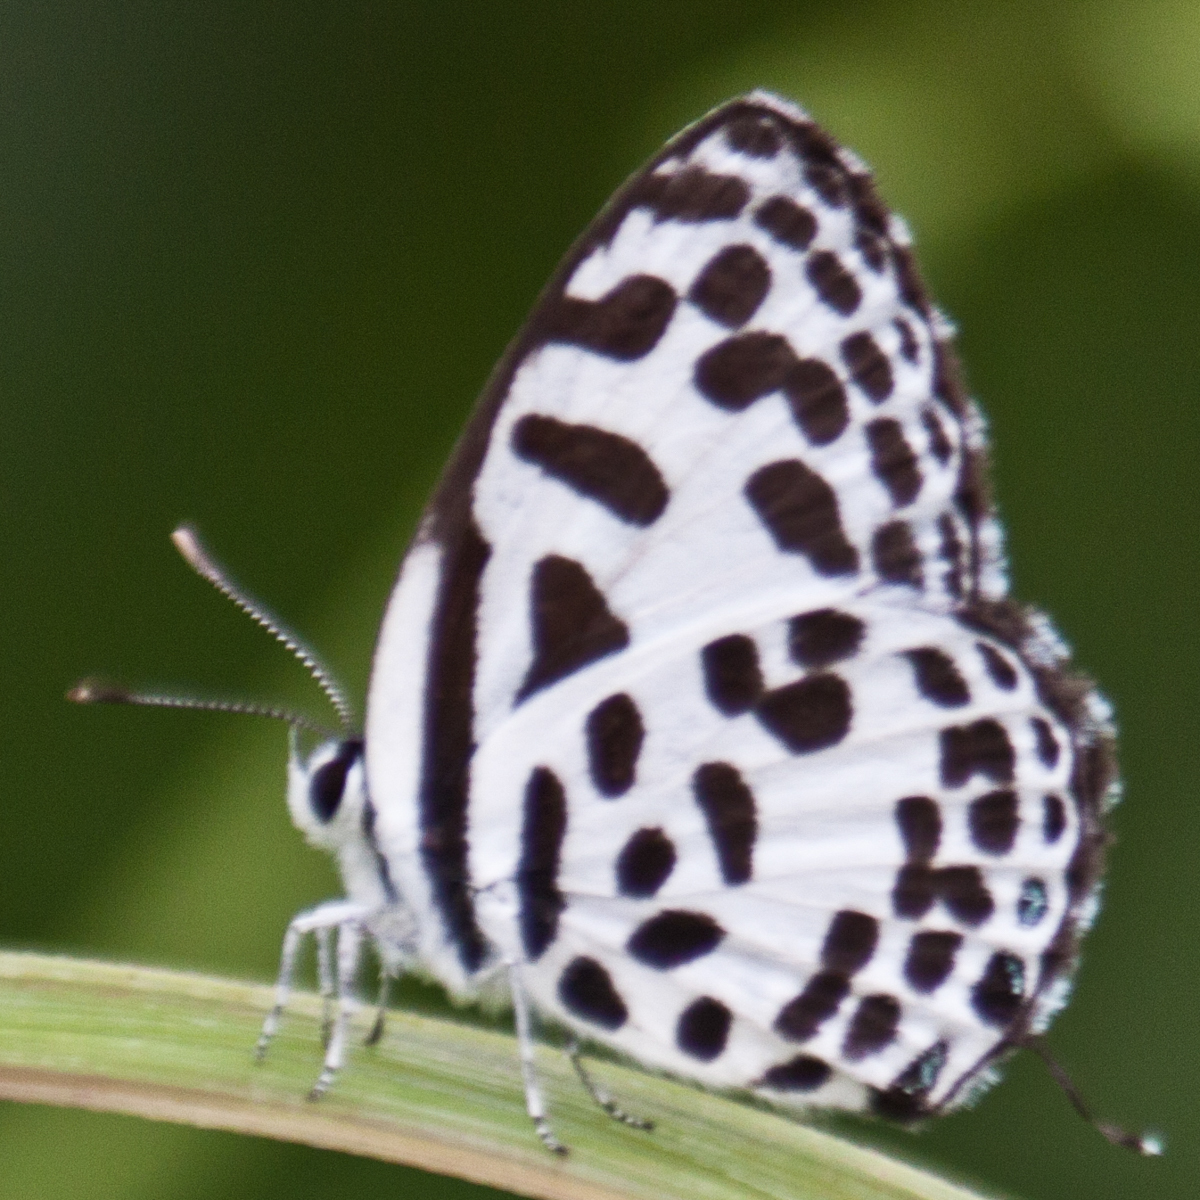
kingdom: Animalia
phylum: Arthropoda
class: Insecta
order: Lepidoptera
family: Lycaenidae
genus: Castalius
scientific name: Castalius rosimon
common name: Common pierrot
